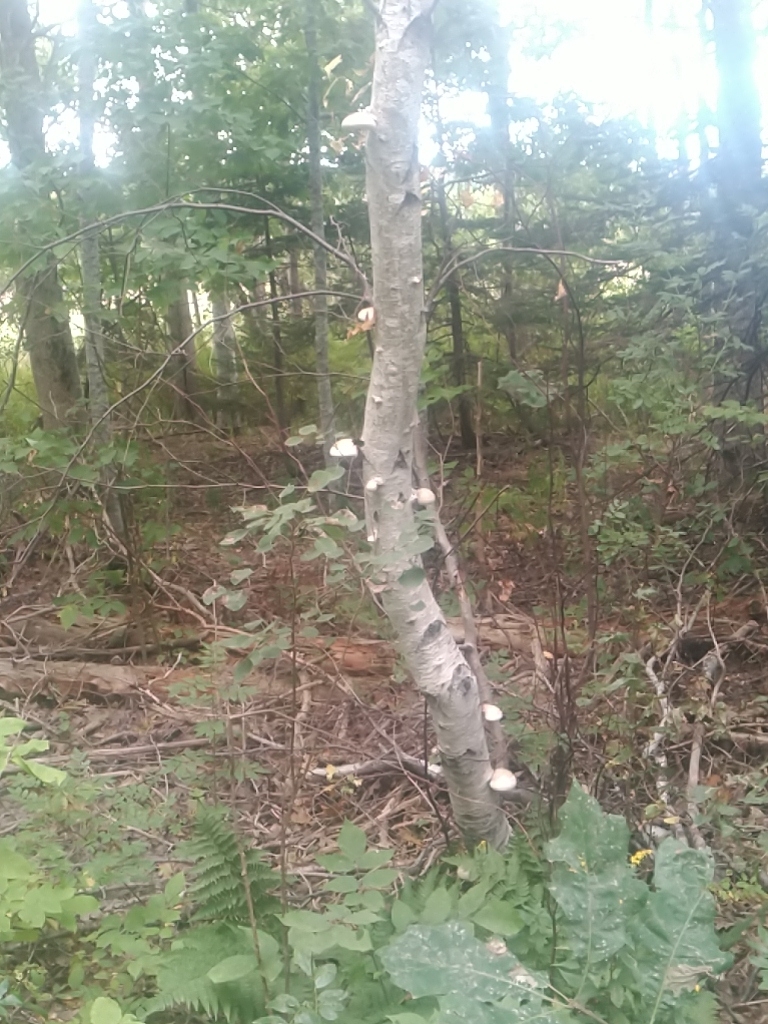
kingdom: Fungi
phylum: Basidiomycota
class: Agaricomycetes
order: Polyporales
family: Fomitopsidaceae
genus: Fomitopsis
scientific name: Fomitopsis betulina
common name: Birch polypore
